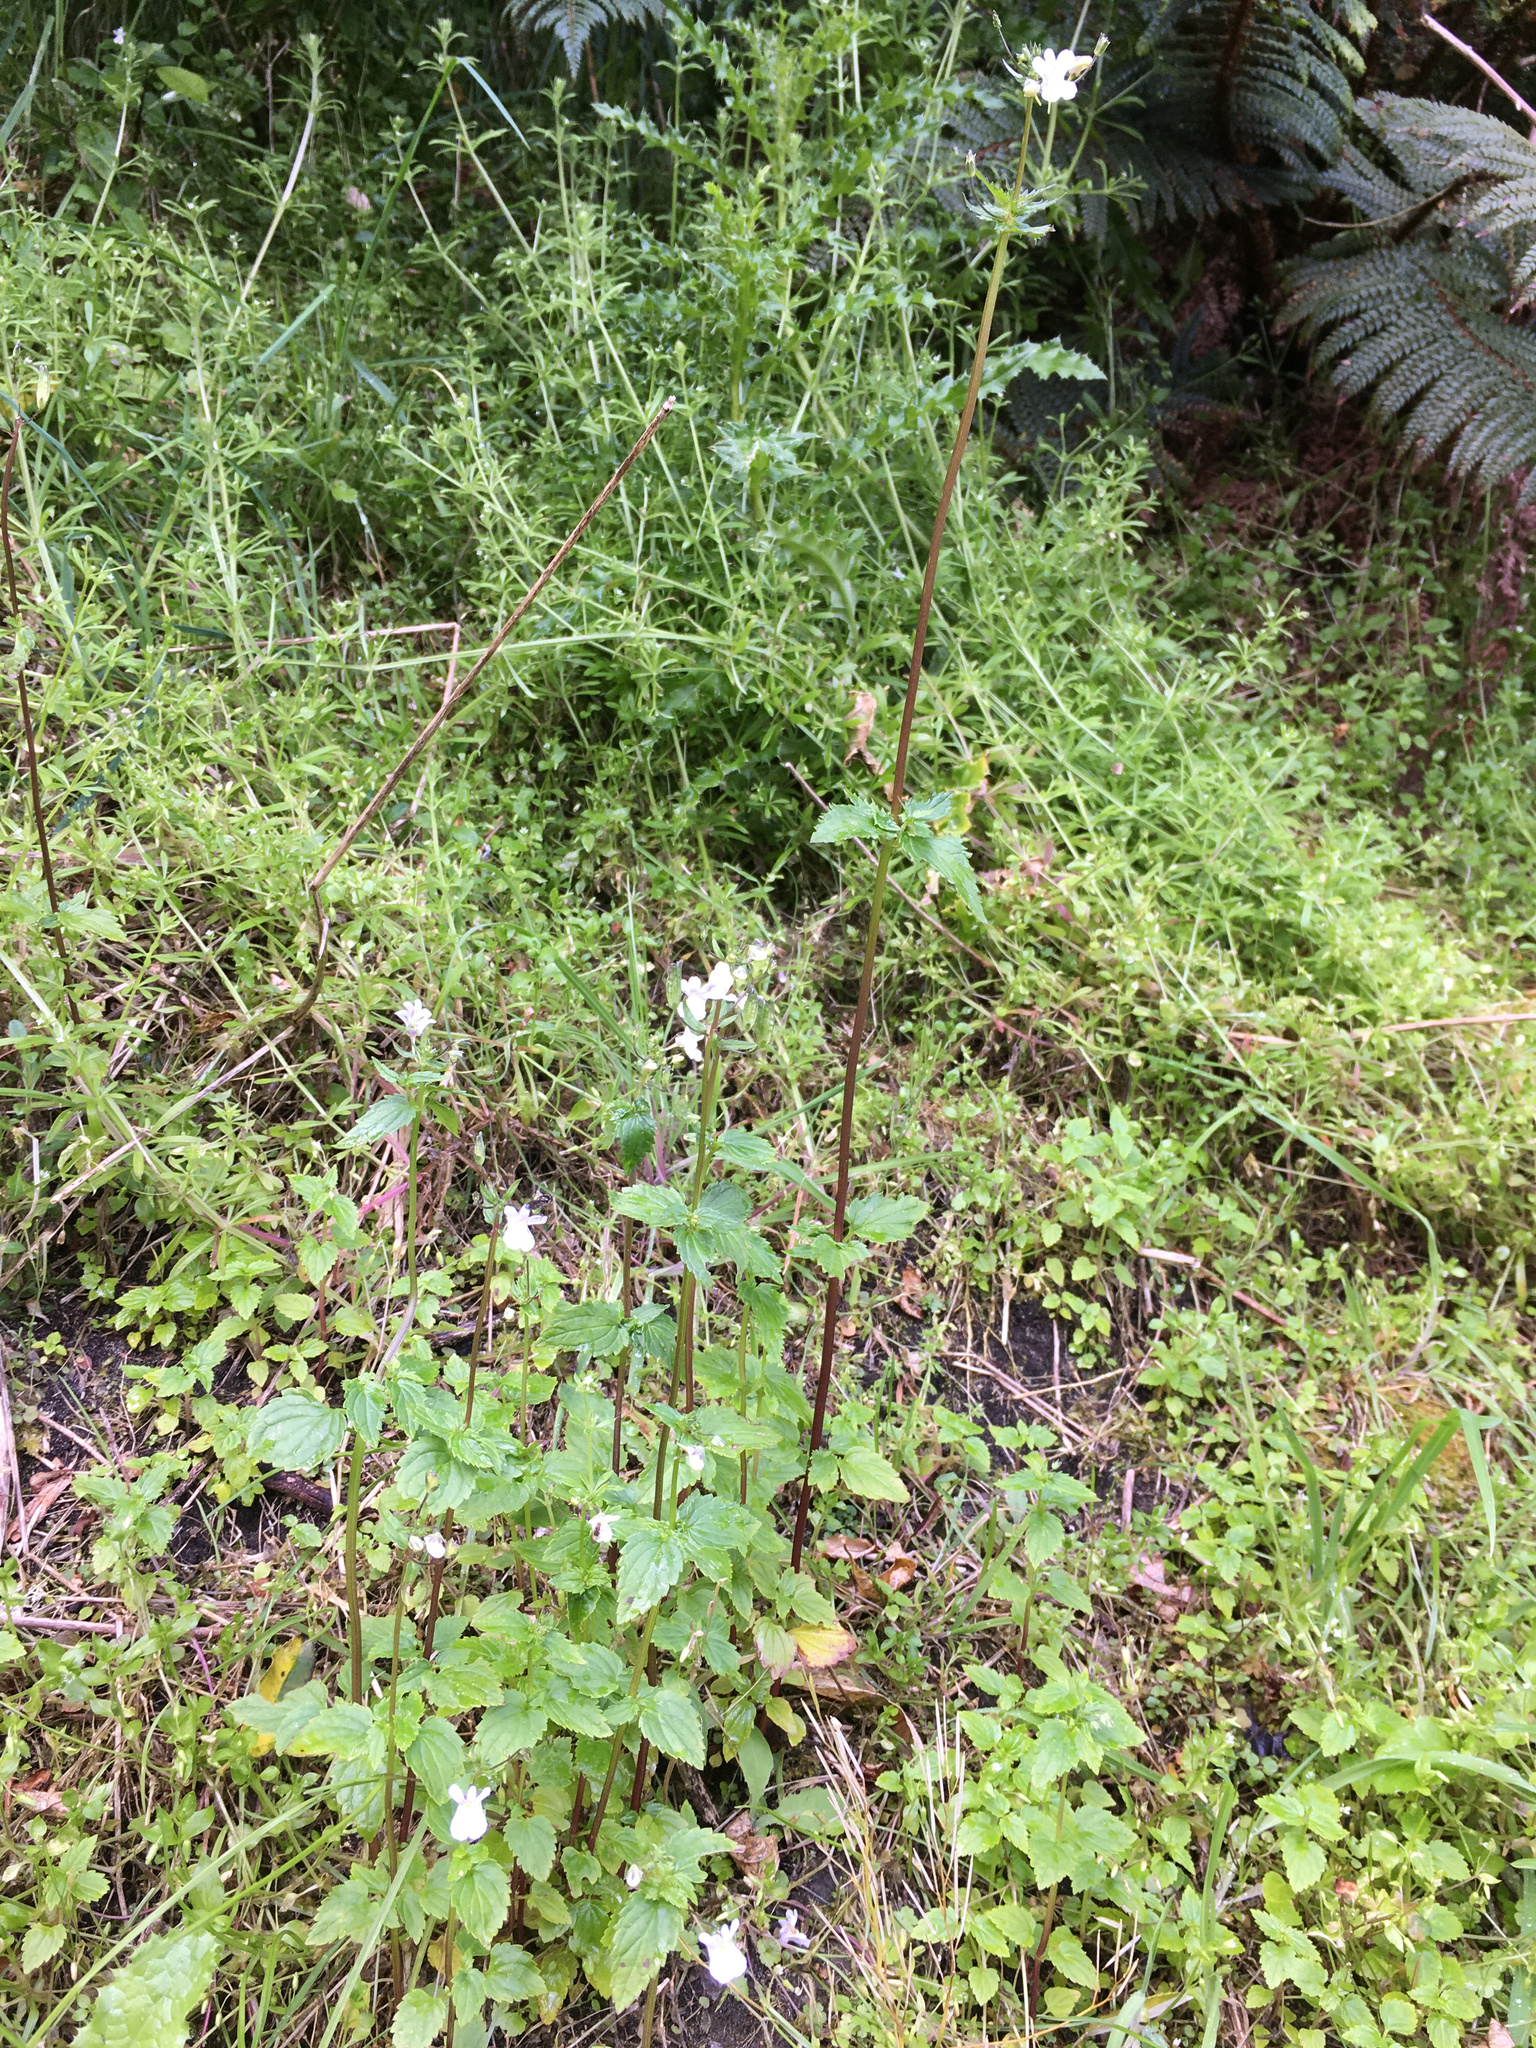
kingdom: Plantae
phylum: Tracheophyta
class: Magnoliopsida
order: Lamiales
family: Scrophulariaceae
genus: Nemesia
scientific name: Nemesia floribunda
